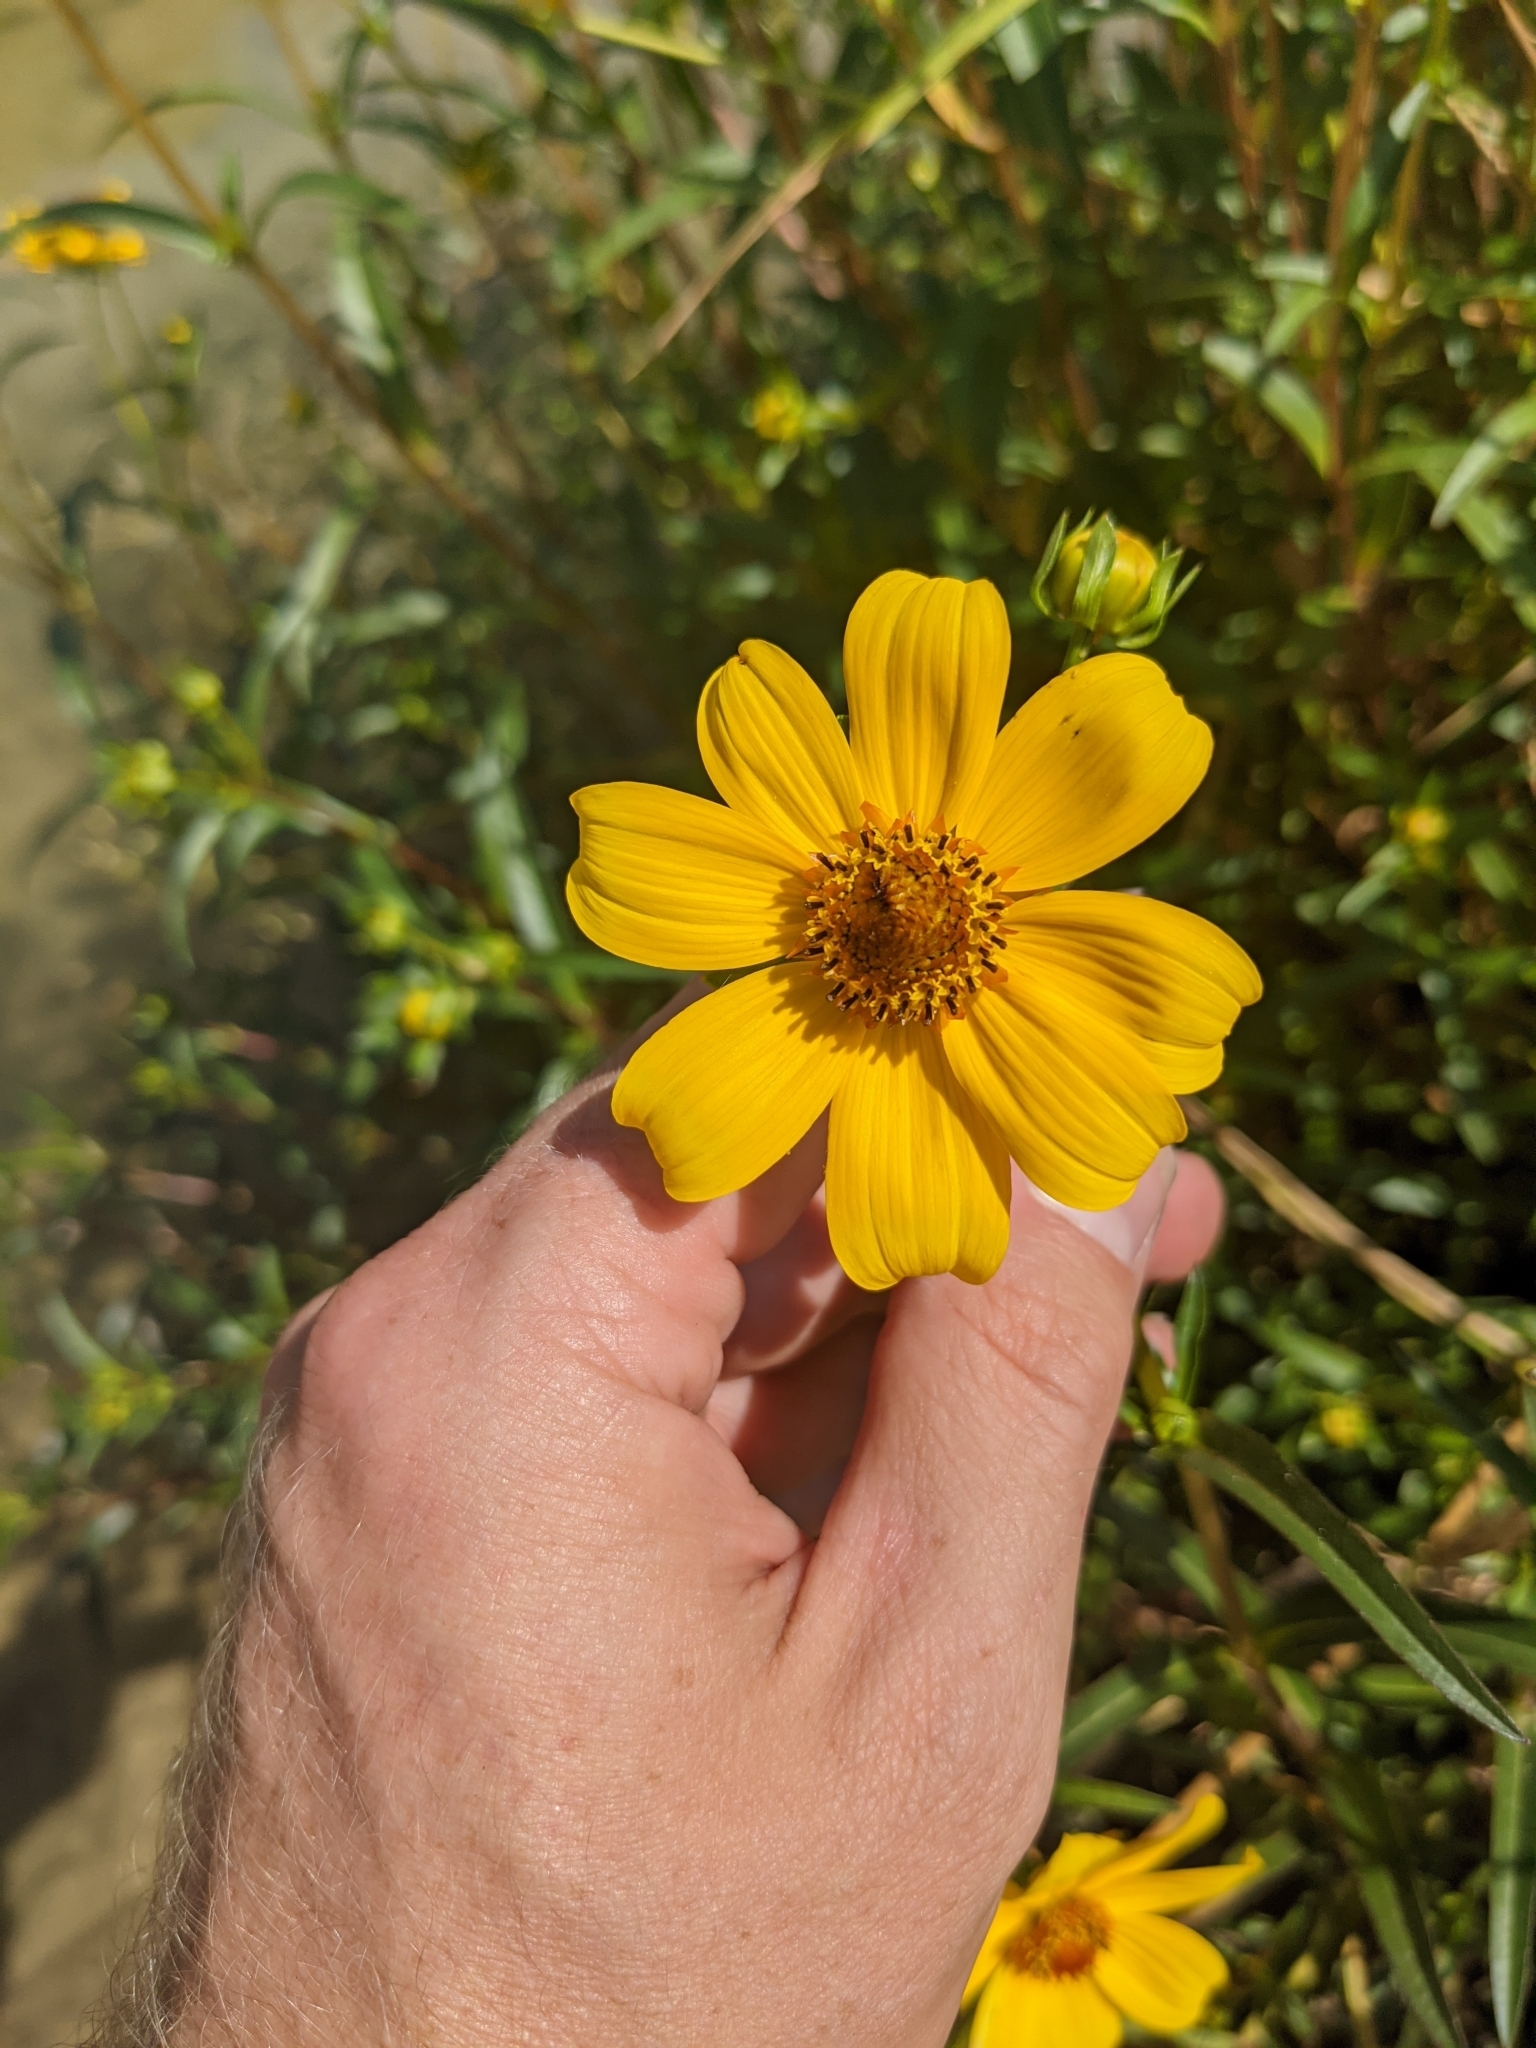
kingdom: Plantae
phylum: Tracheophyta
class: Magnoliopsida
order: Asterales
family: Asteraceae
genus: Bidens
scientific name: Bidens laevis
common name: Larger bur-marigold
